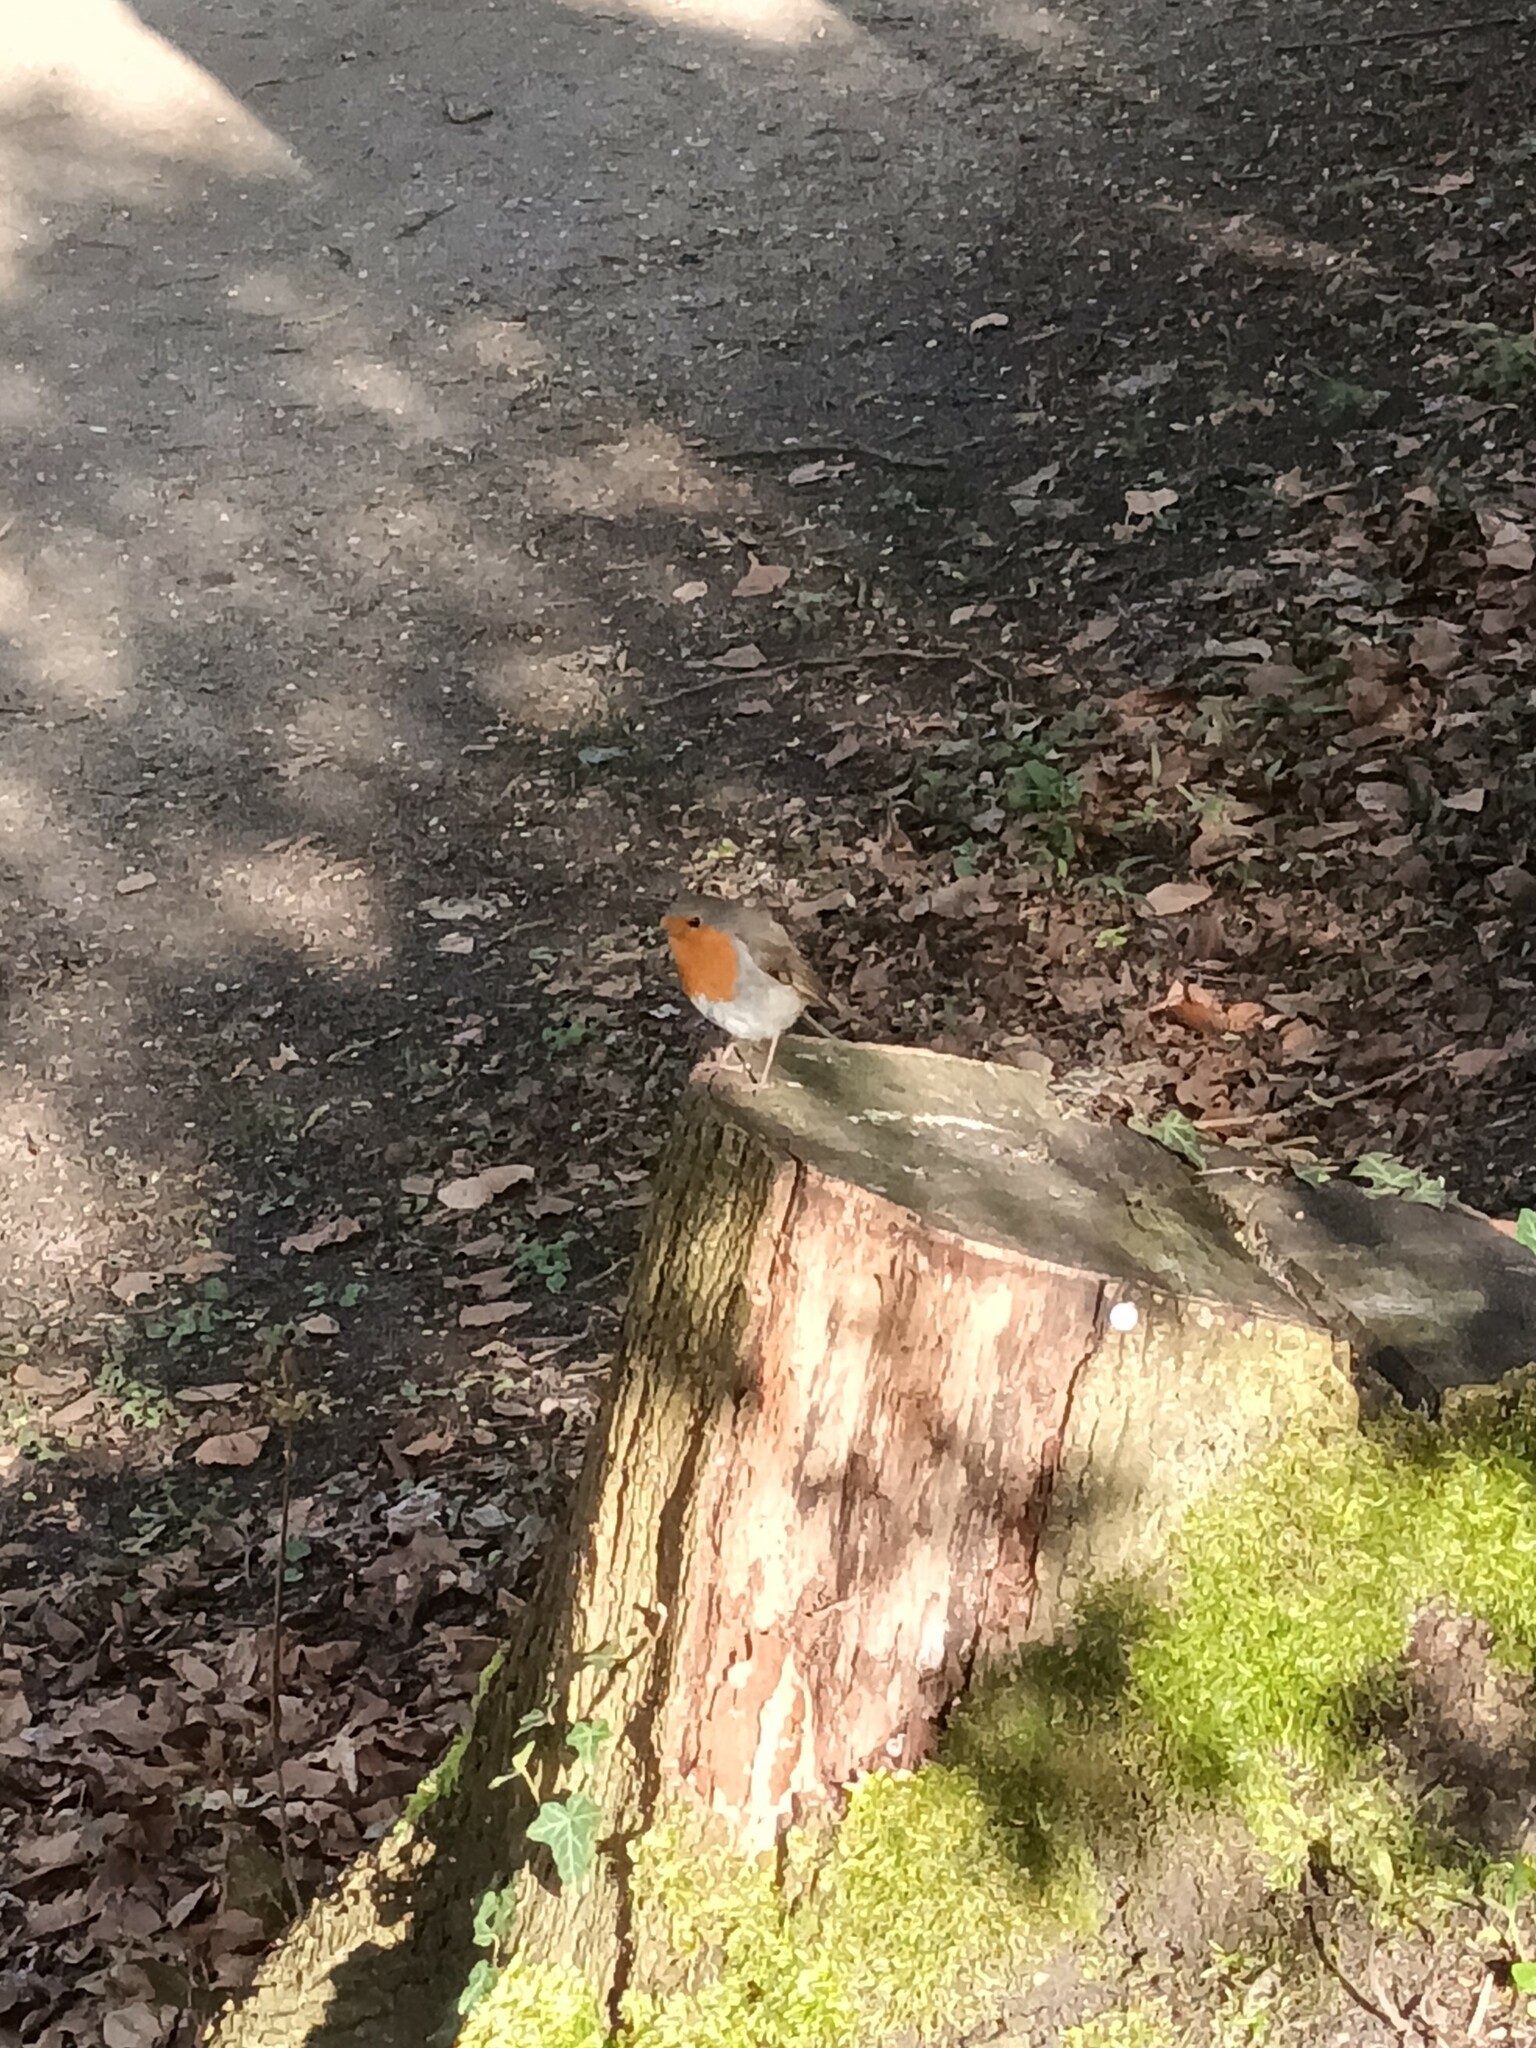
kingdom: Animalia
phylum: Chordata
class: Aves
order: Passeriformes
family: Muscicapidae
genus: Erithacus
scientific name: Erithacus rubecula
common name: European robin
